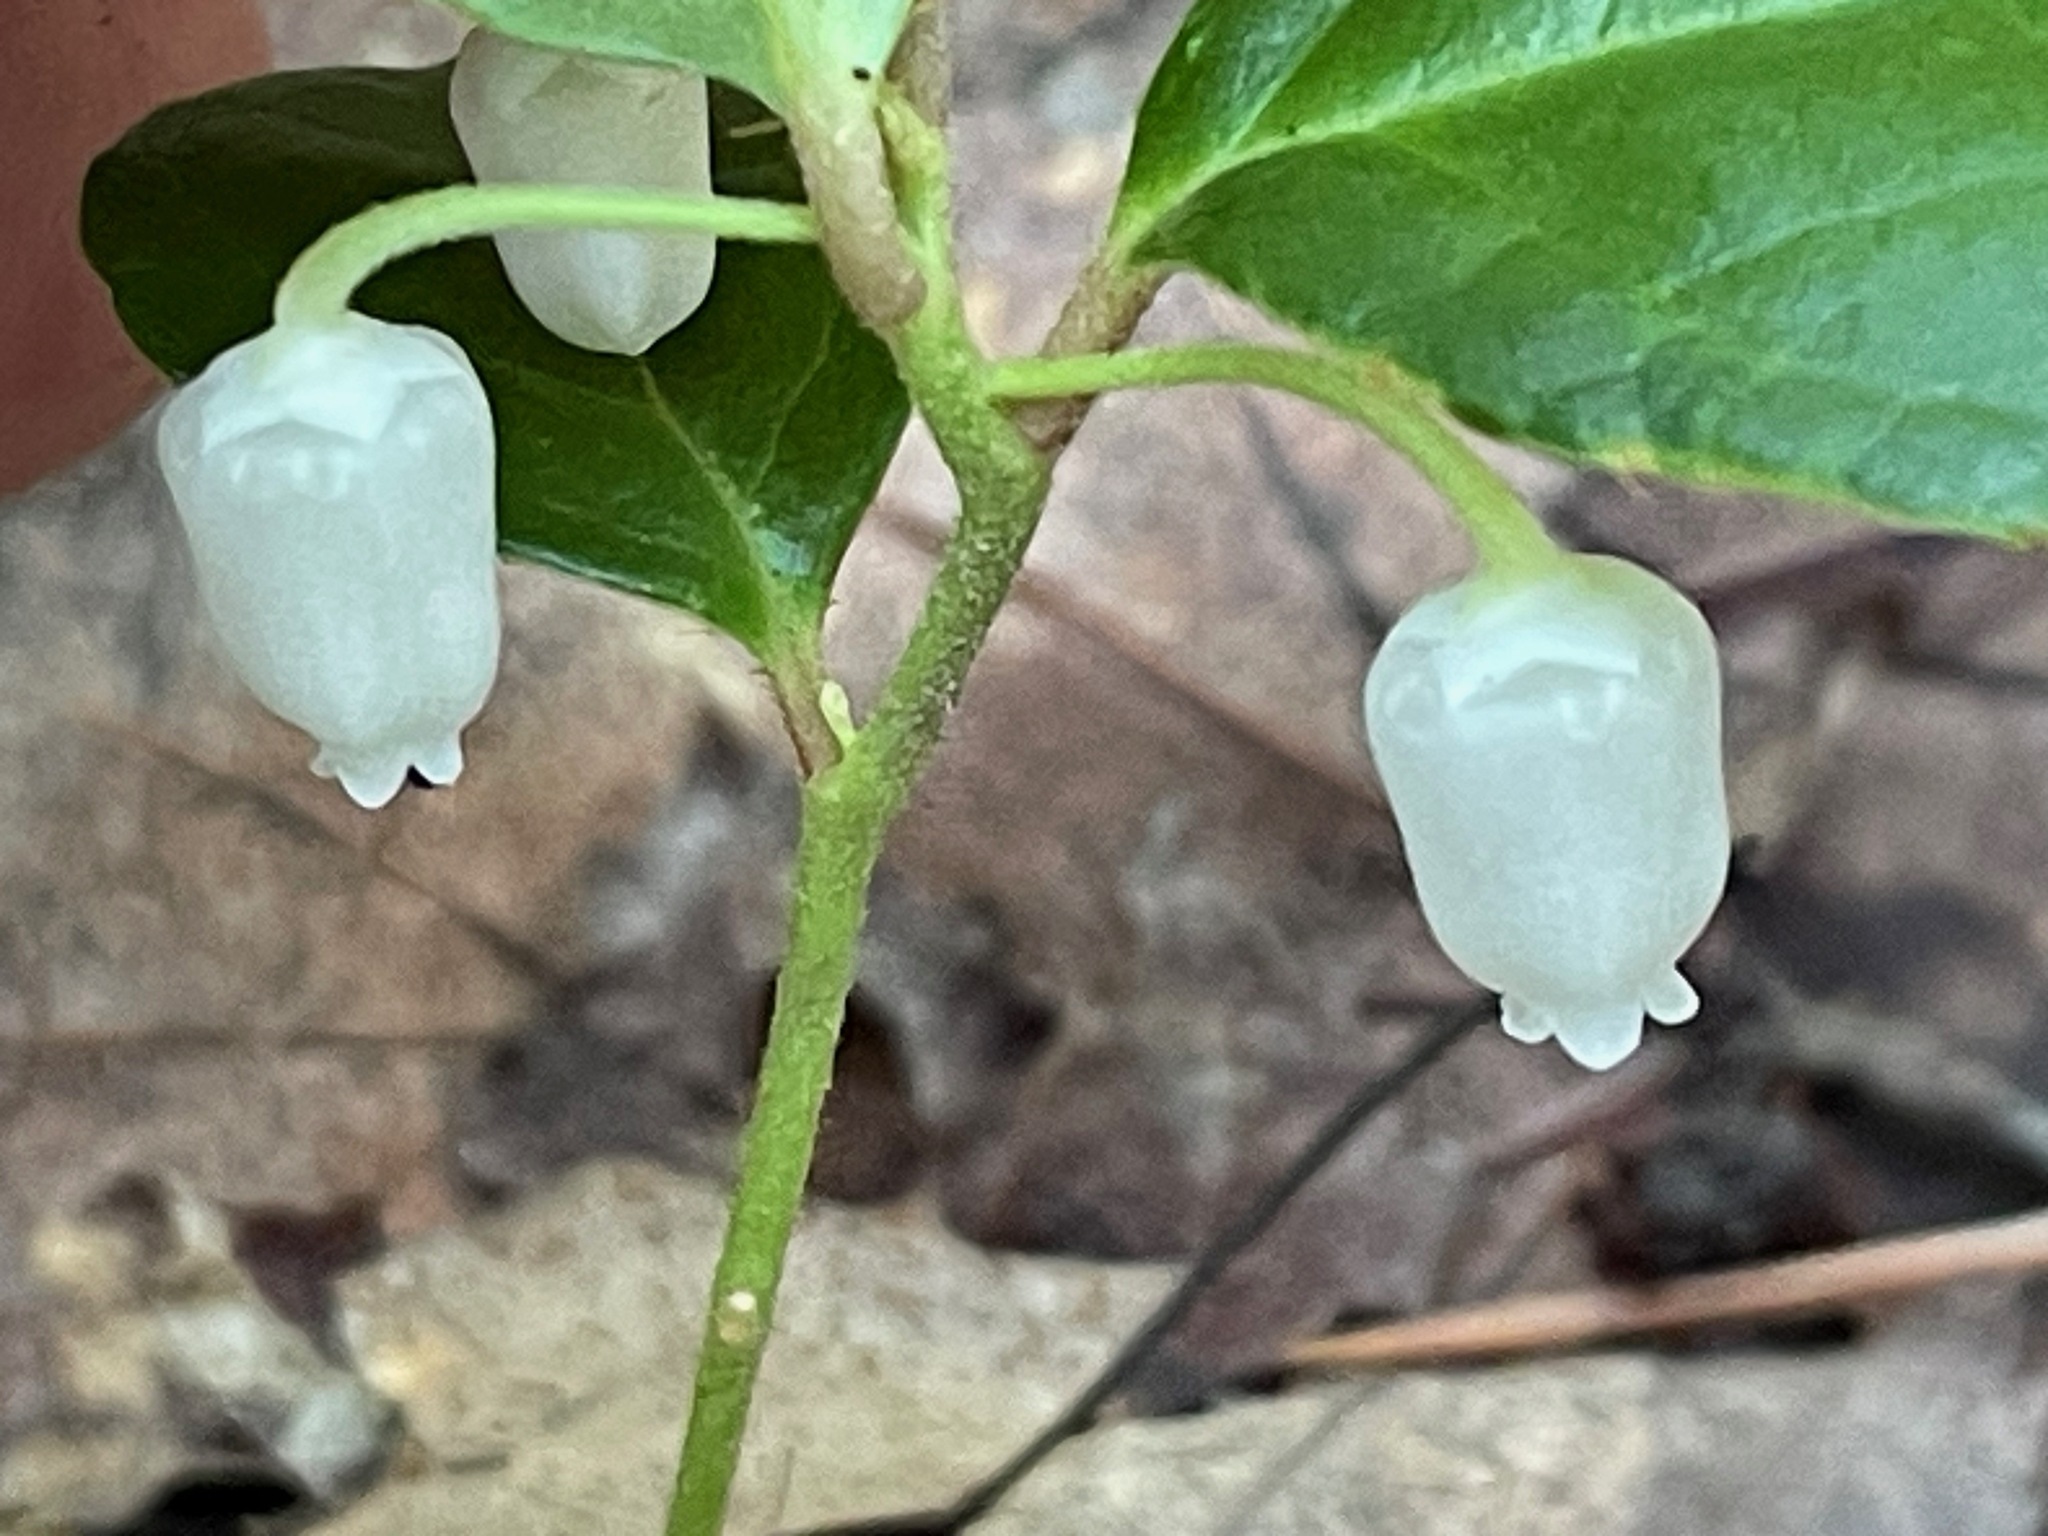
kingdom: Plantae
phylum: Tracheophyta
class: Magnoliopsida
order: Ericales
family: Ericaceae
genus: Gaultheria
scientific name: Gaultheria procumbens
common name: Checkerberry
